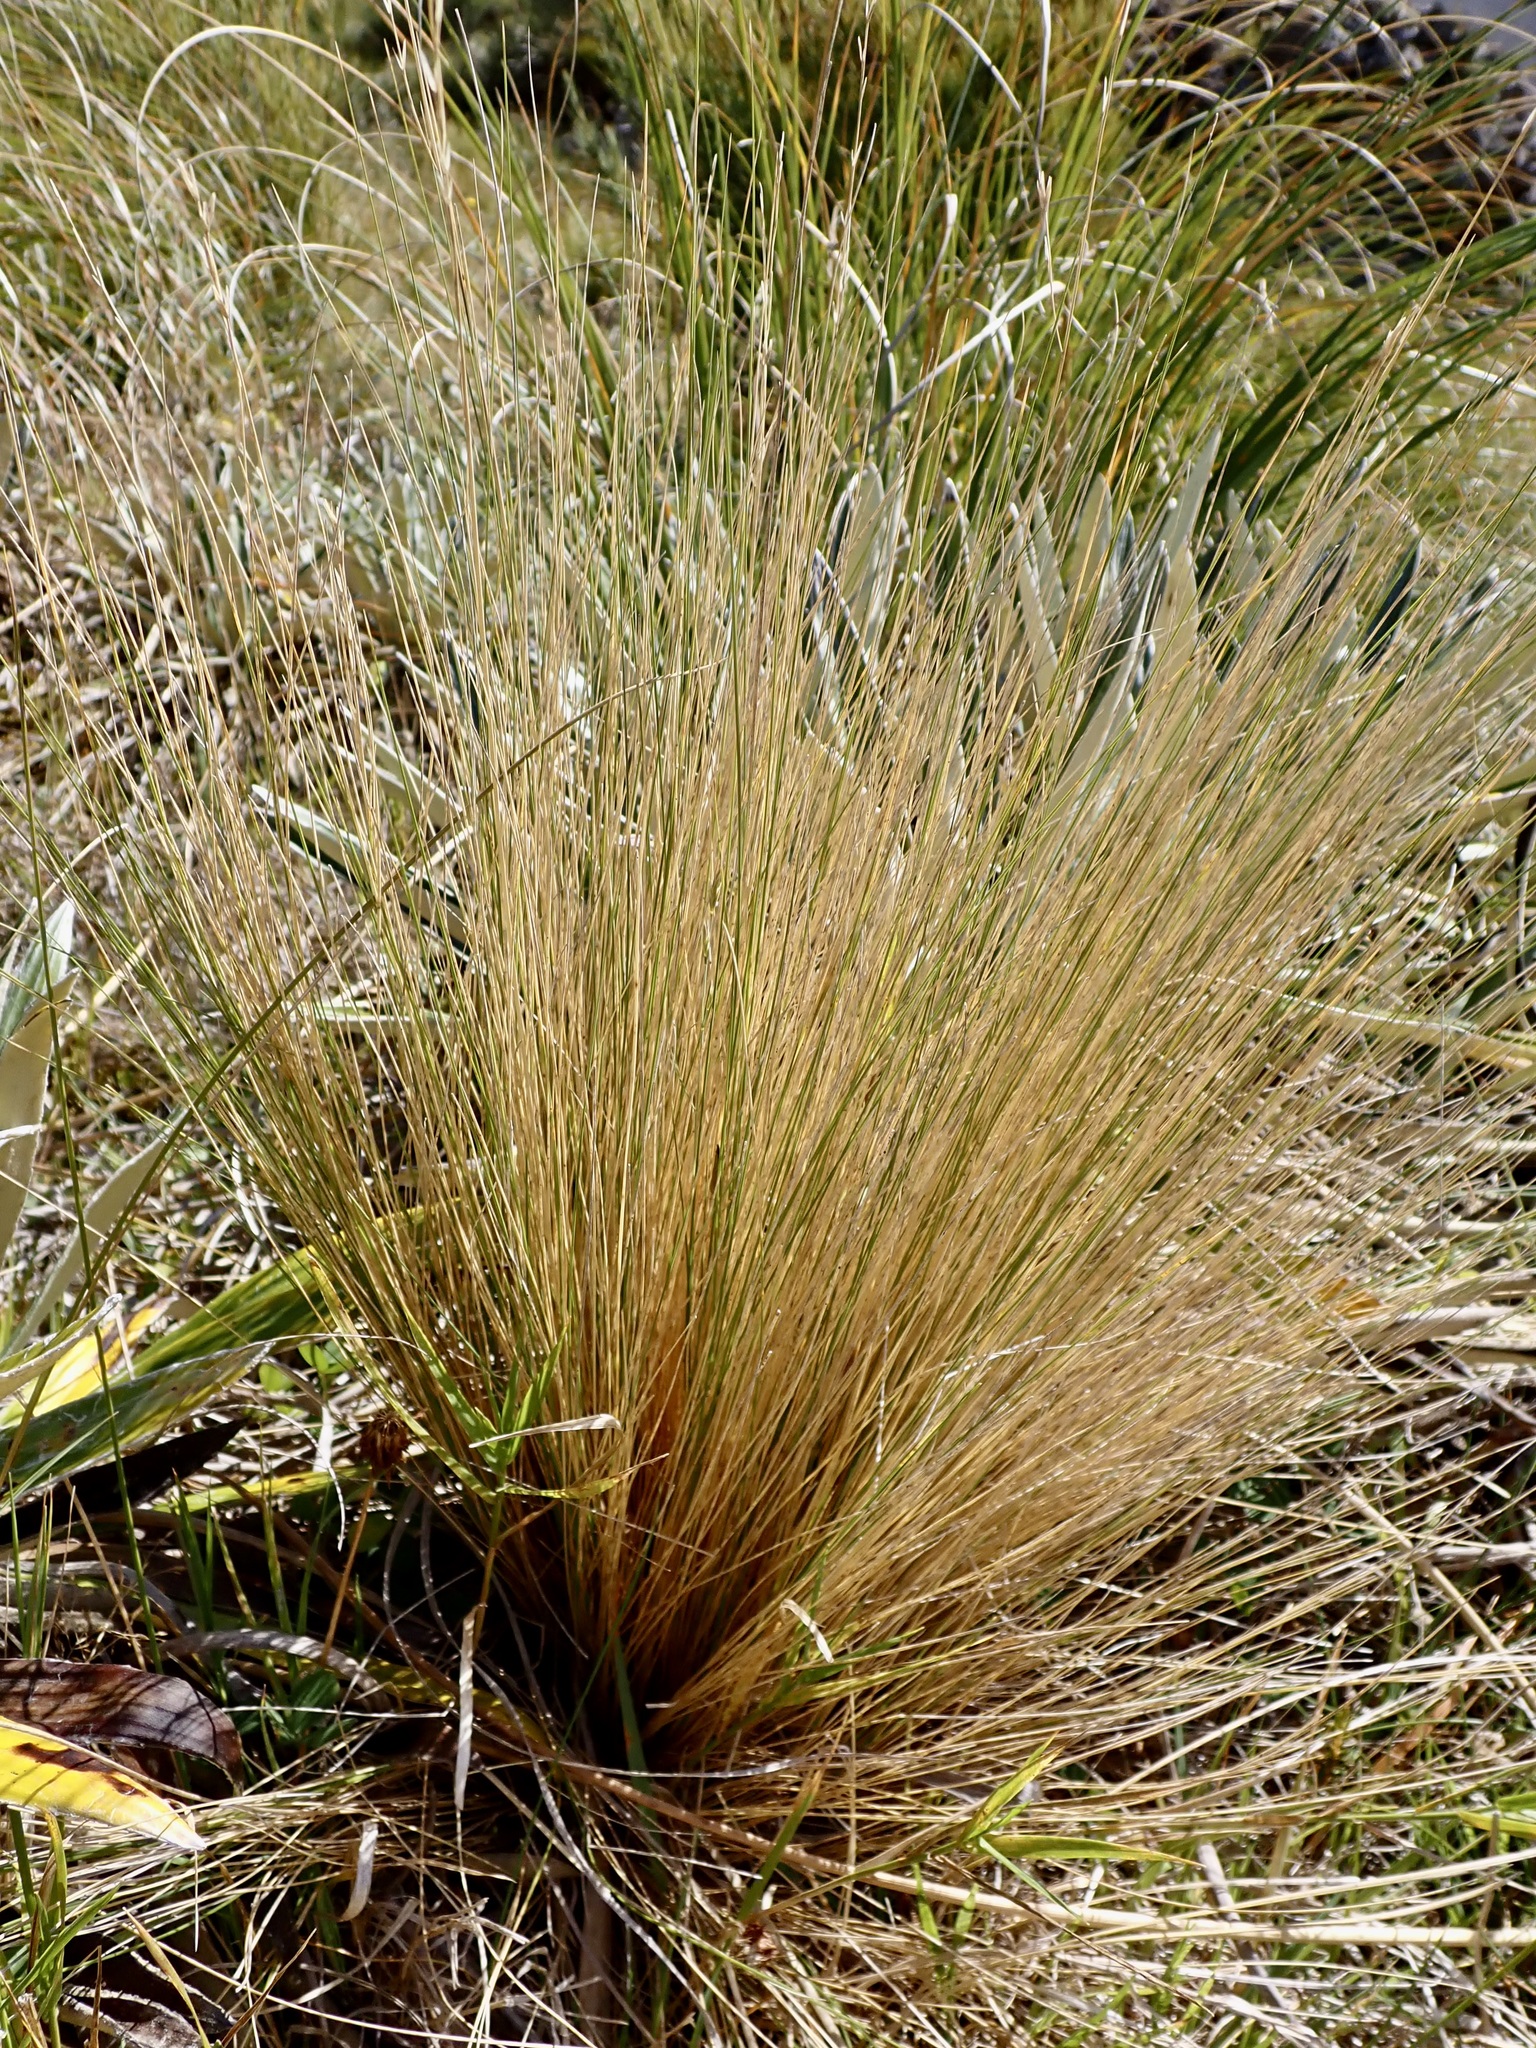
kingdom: Plantae
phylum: Tracheophyta
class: Liliopsida
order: Poales
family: Poaceae
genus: Poa
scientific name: Poa cita
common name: Silver tussock
